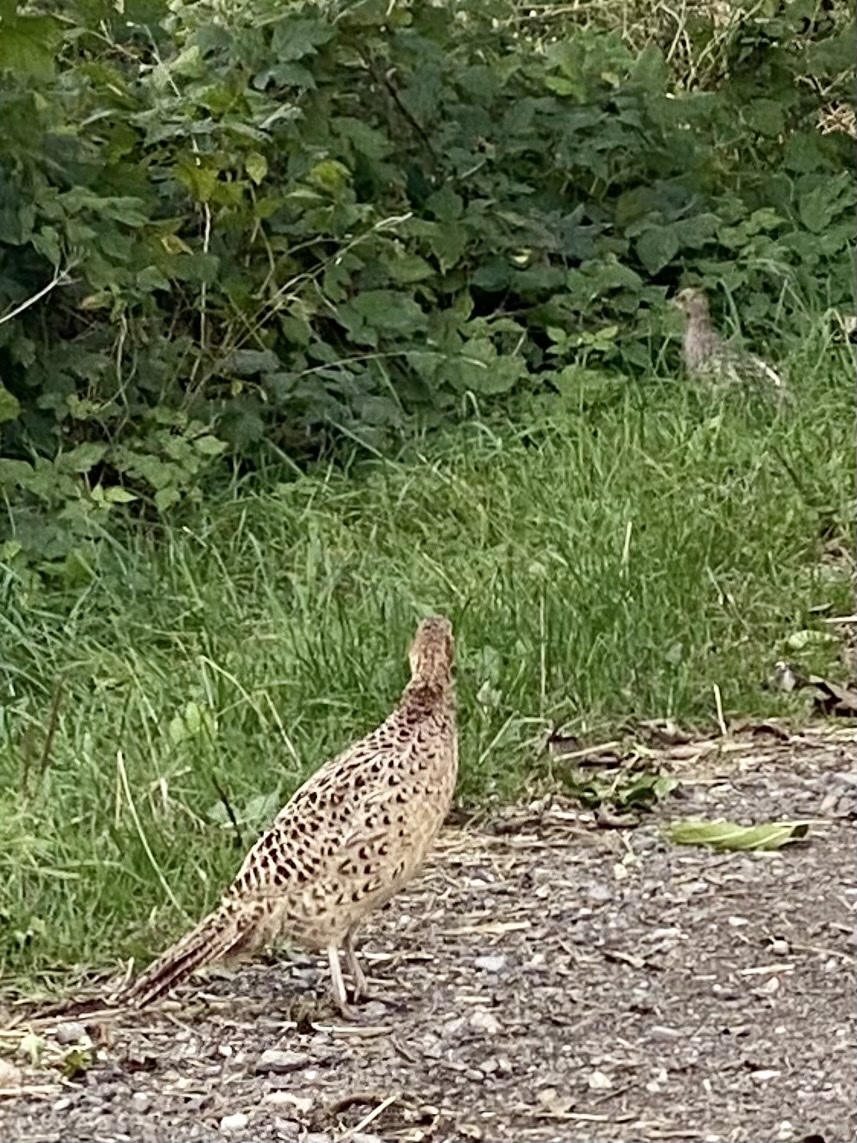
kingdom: Animalia
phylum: Chordata
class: Aves
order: Galliformes
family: Phasianidae
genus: Phasianus
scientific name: Phasianus colchicus
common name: Common pheasant
